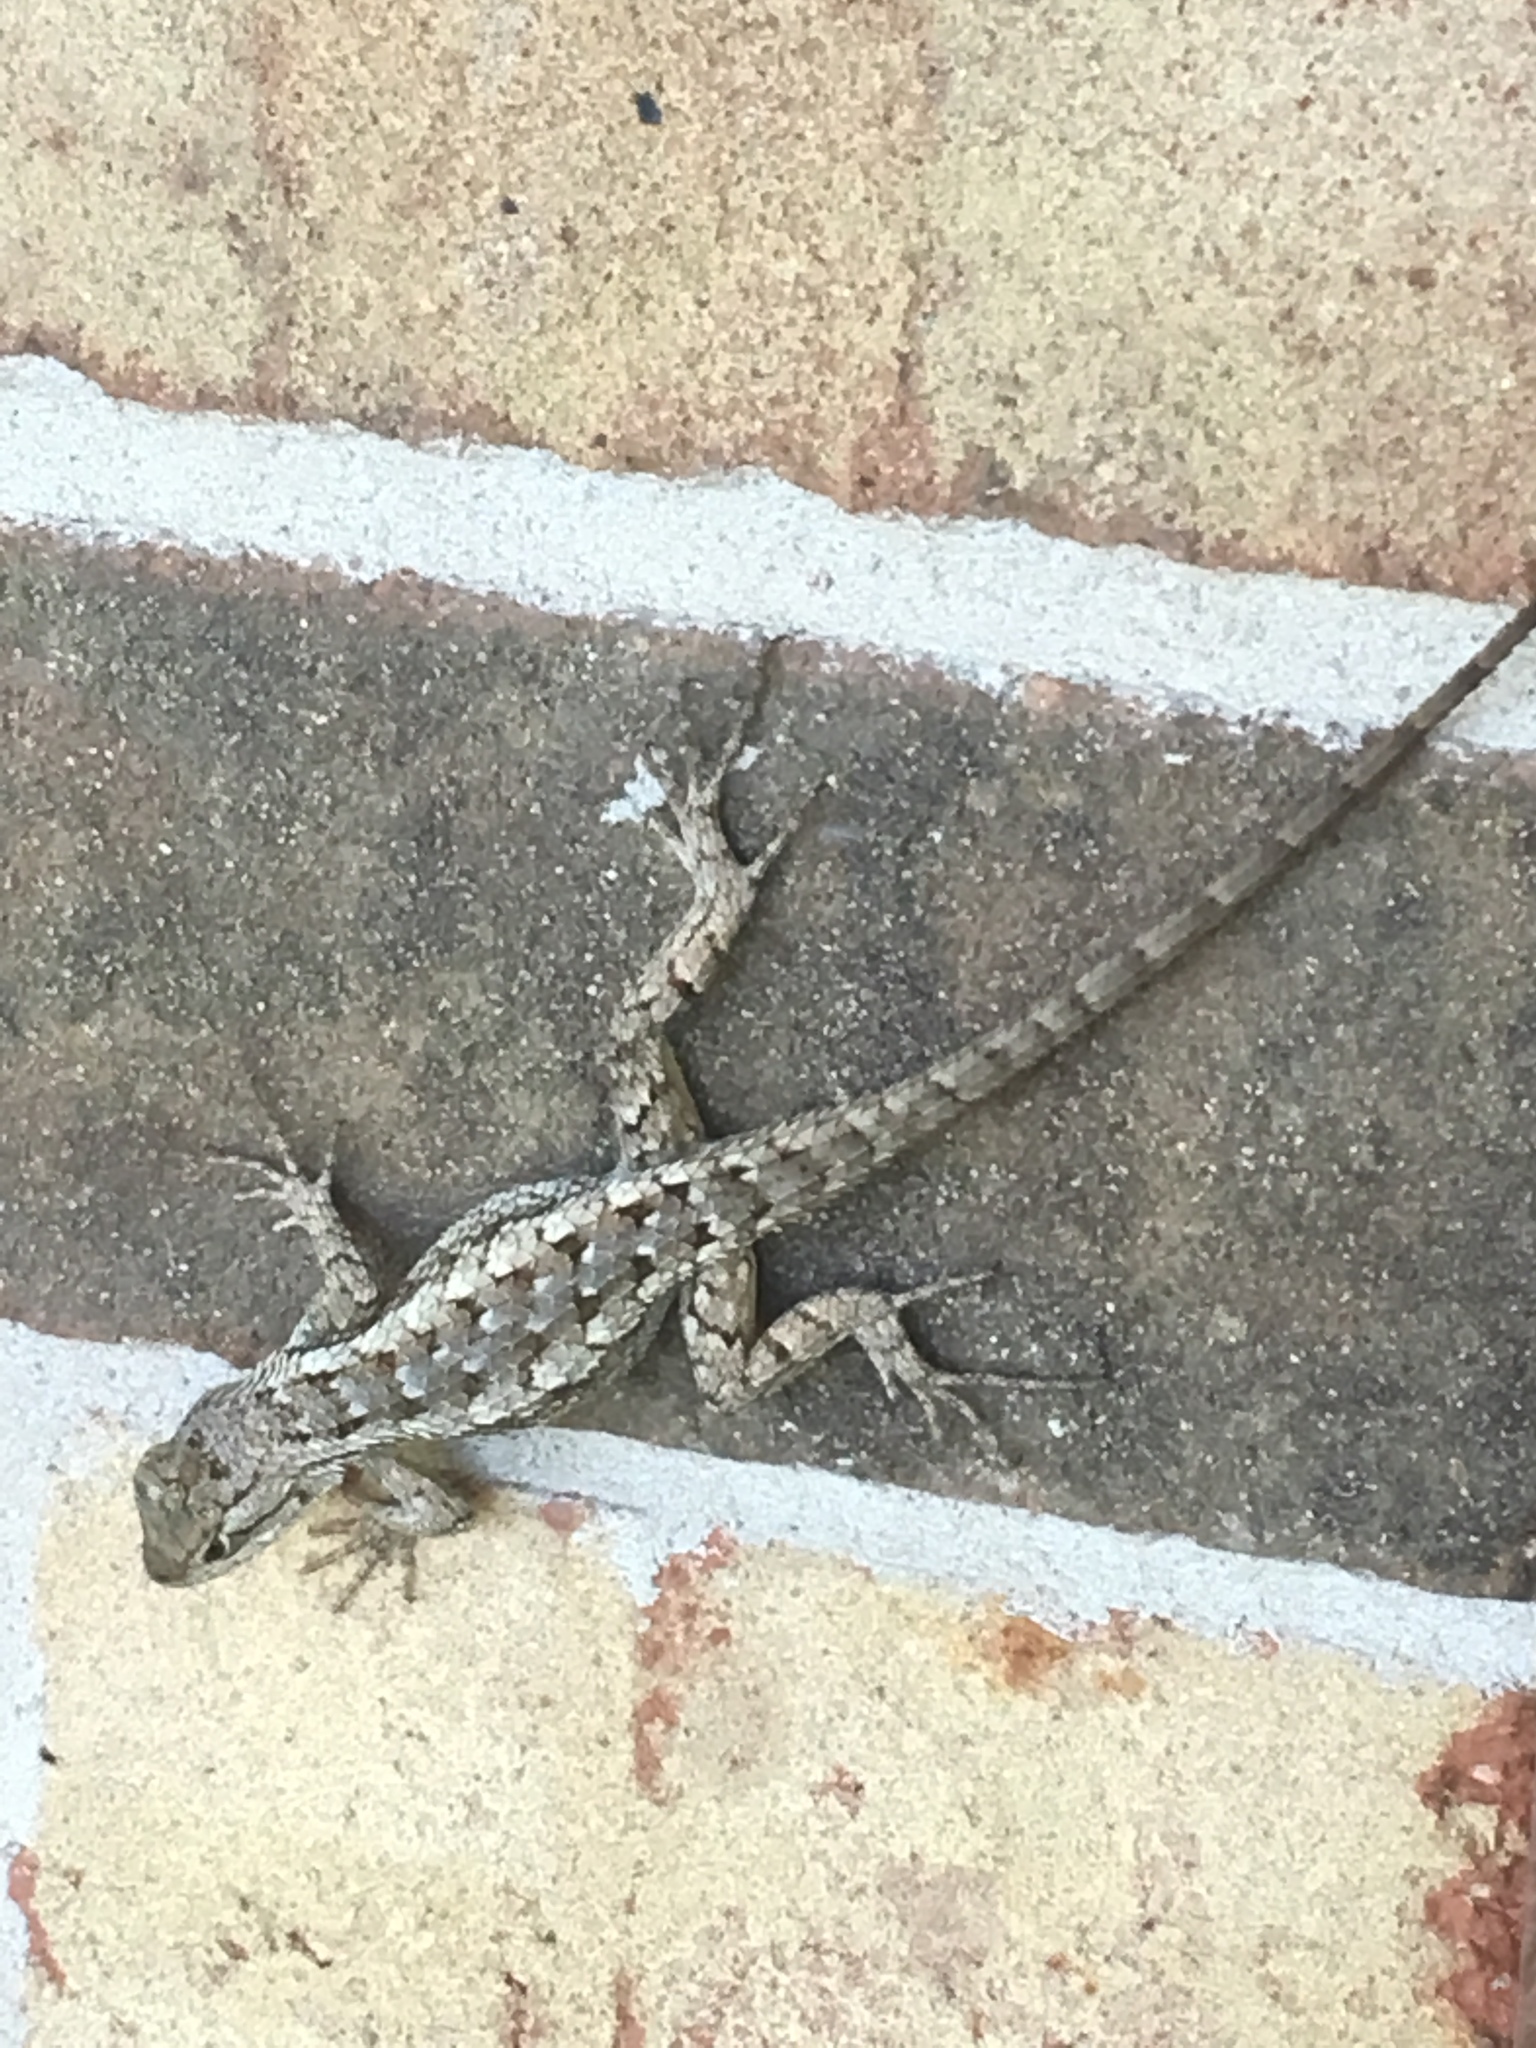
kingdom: Animalia
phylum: Chordata
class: Squamata
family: Phrynosomatidae
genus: Sceloporus
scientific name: Sceloporus olivaceus
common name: Texas spiny lizard
